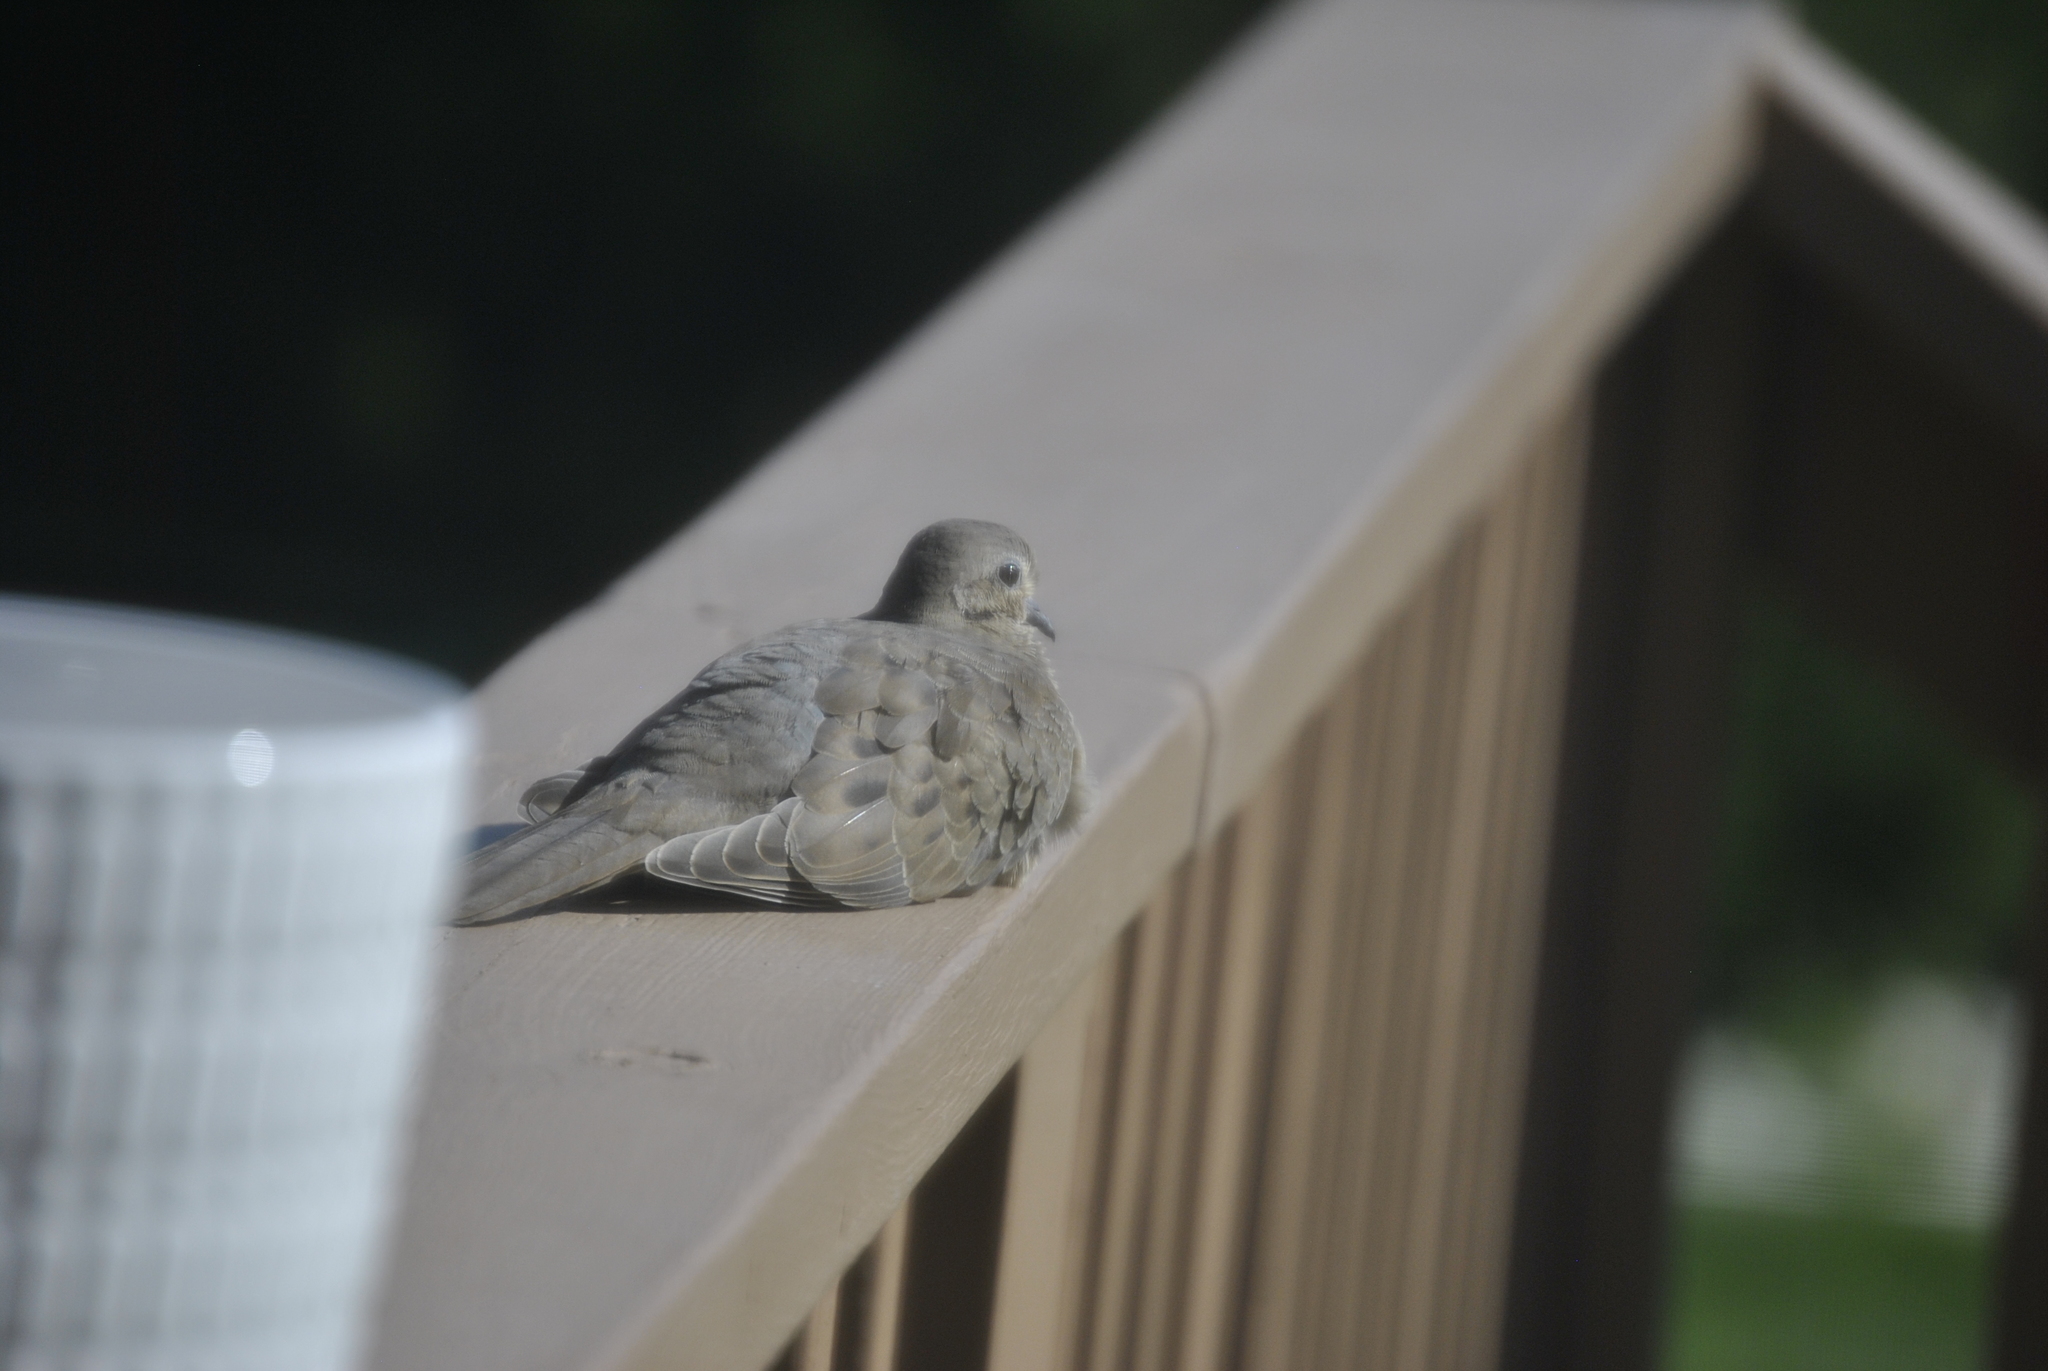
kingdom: Animalia
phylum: Chordata
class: Aves
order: Columbiformes
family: Columbidae
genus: Zenaida
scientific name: Zenaida macroura
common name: Mourning dove
